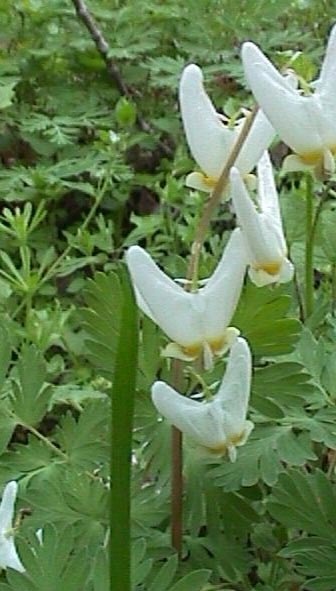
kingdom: Plantae
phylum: Tracheophyta
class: Magnoliopsida
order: Ranunculales
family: Papaveraceae
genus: Dicentra
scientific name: Dicentra cucullaria
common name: Dutchman's breeches
